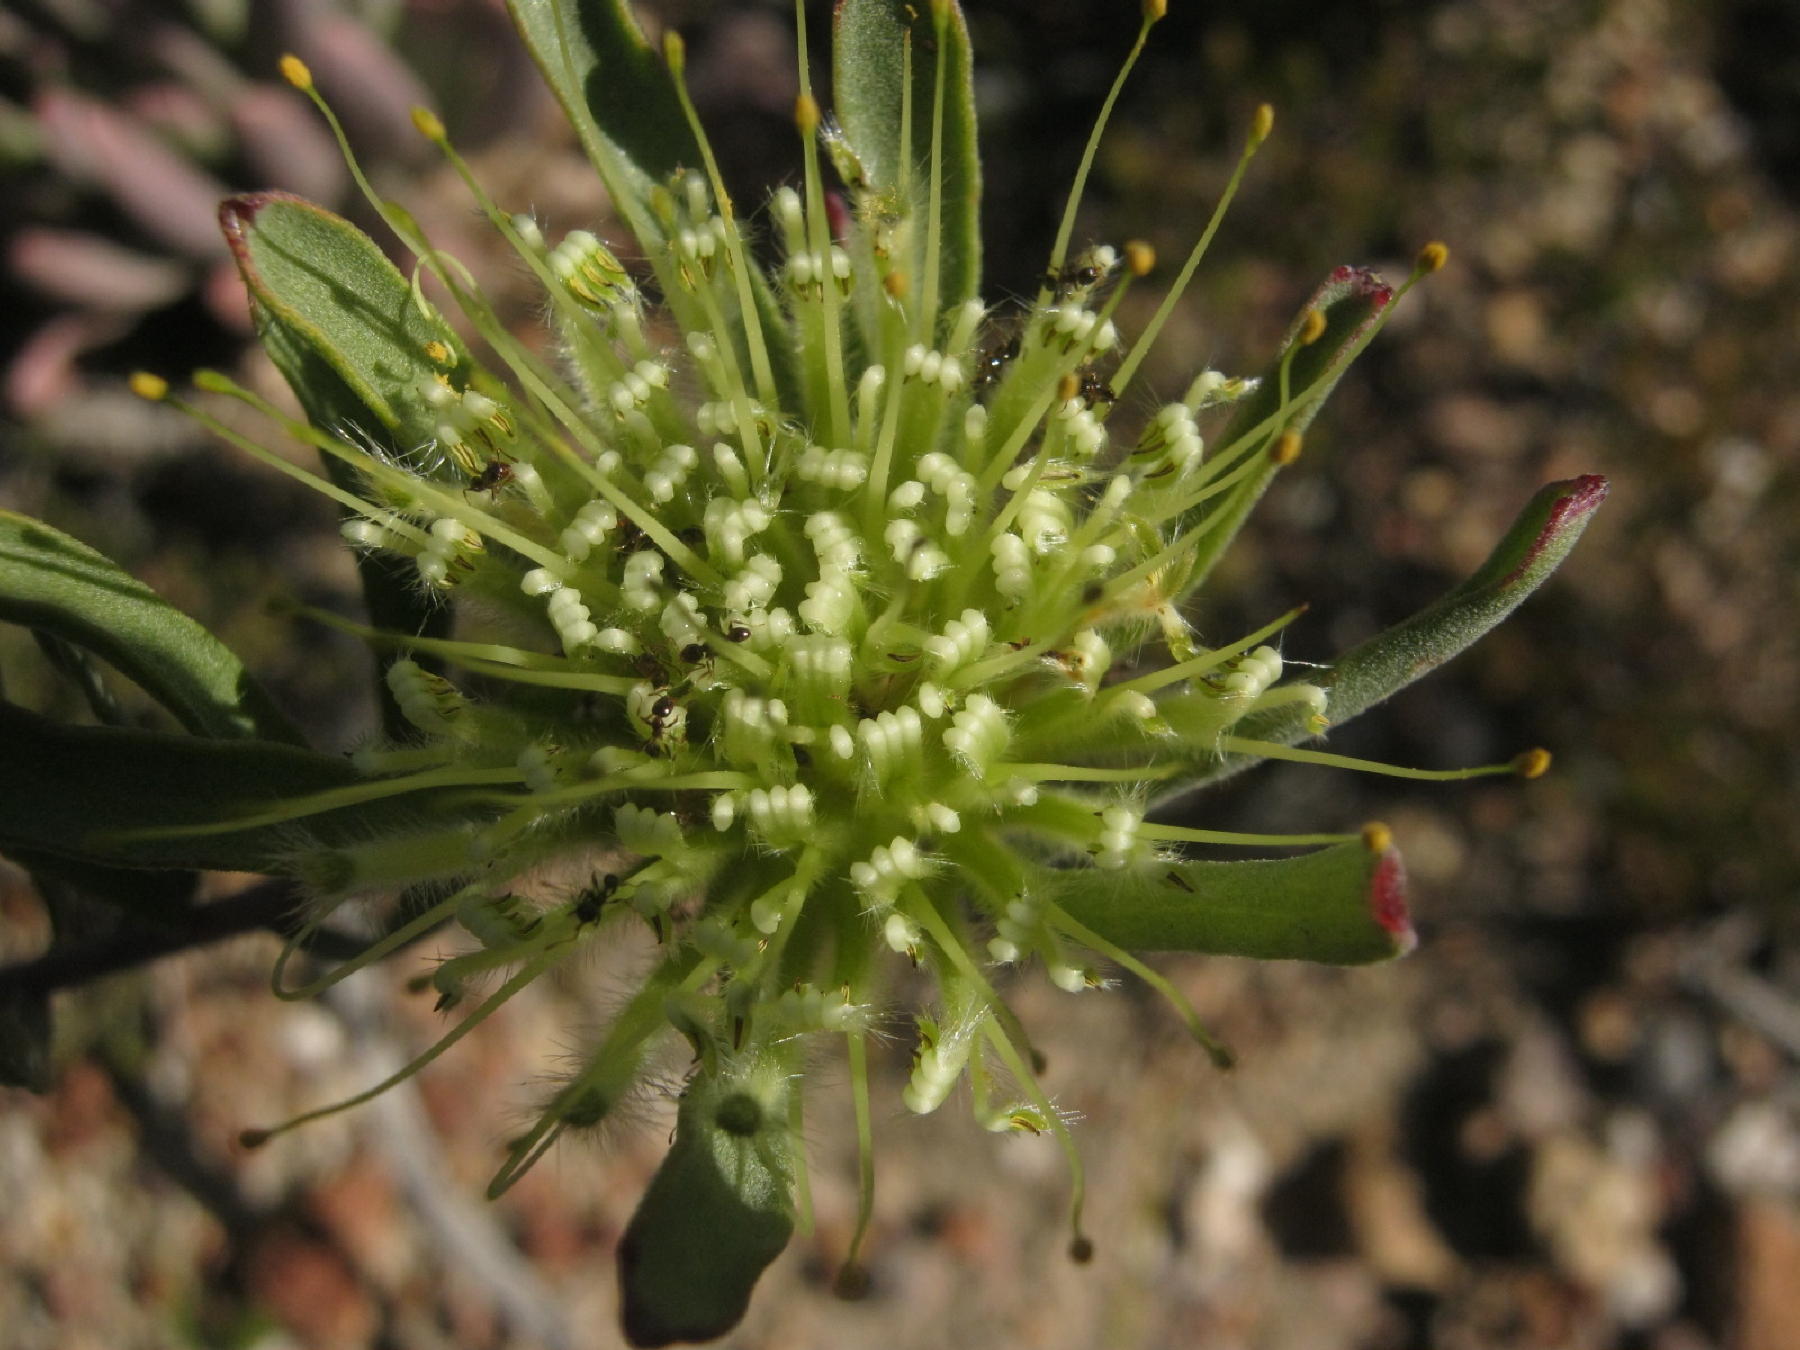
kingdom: Plantae
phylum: Tracheophyta
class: Magnoliopsida
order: Proteales
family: Proteaceae
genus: Leucospermum
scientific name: Leucospermum saxatile
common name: Karoo pincushion
